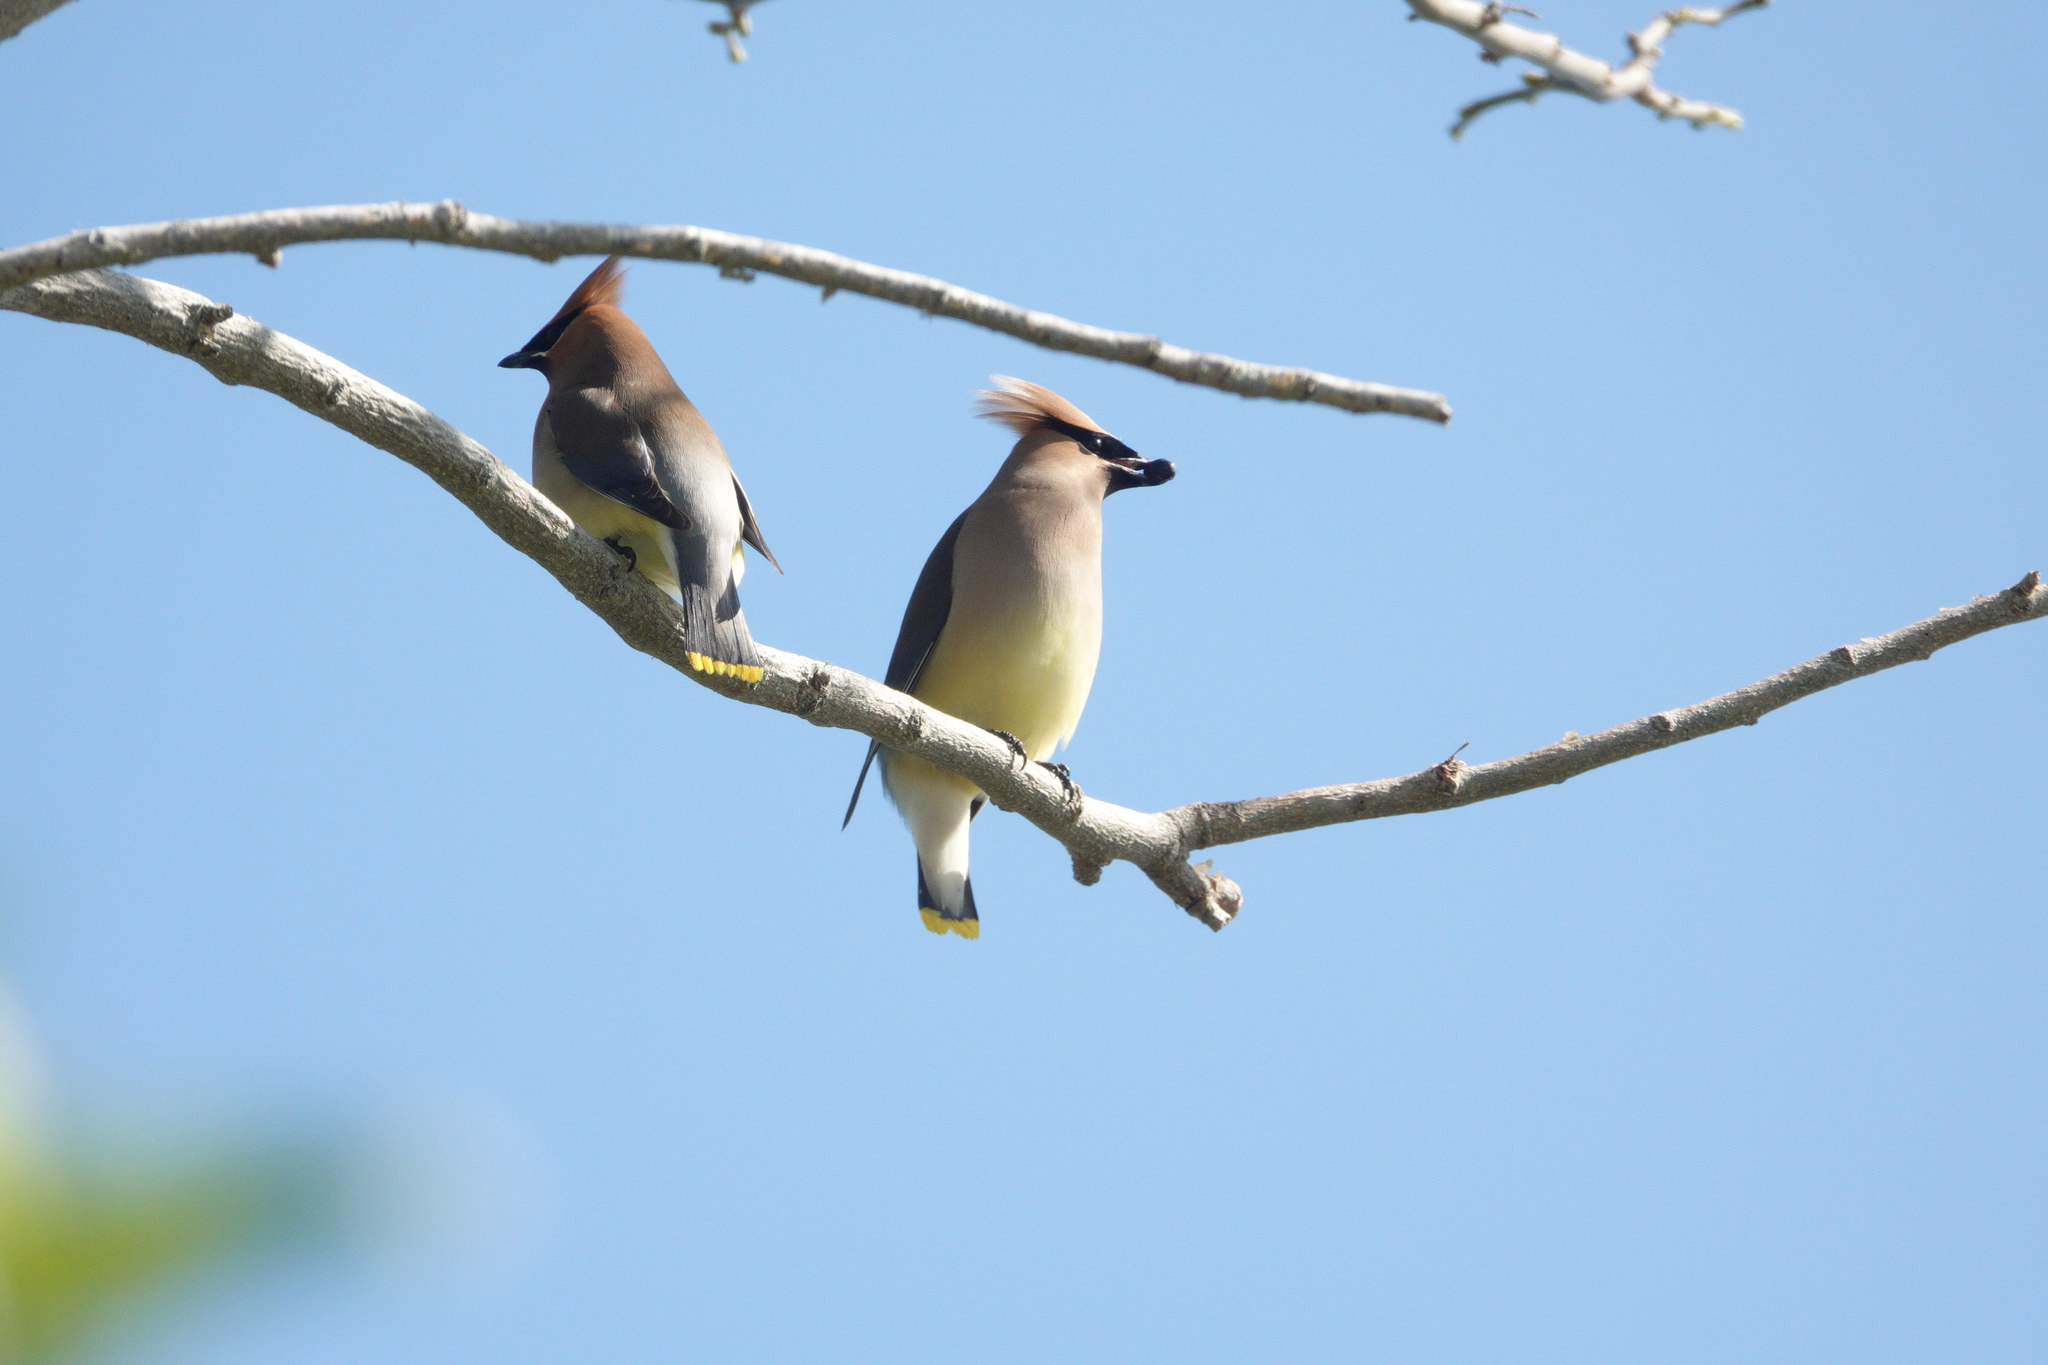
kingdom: Animalia
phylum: Chordata
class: Aves
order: Passeriformes
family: Bombycillidae
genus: Bombycilla
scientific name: Bombycilla cedrorum
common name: Cedar waxwing
